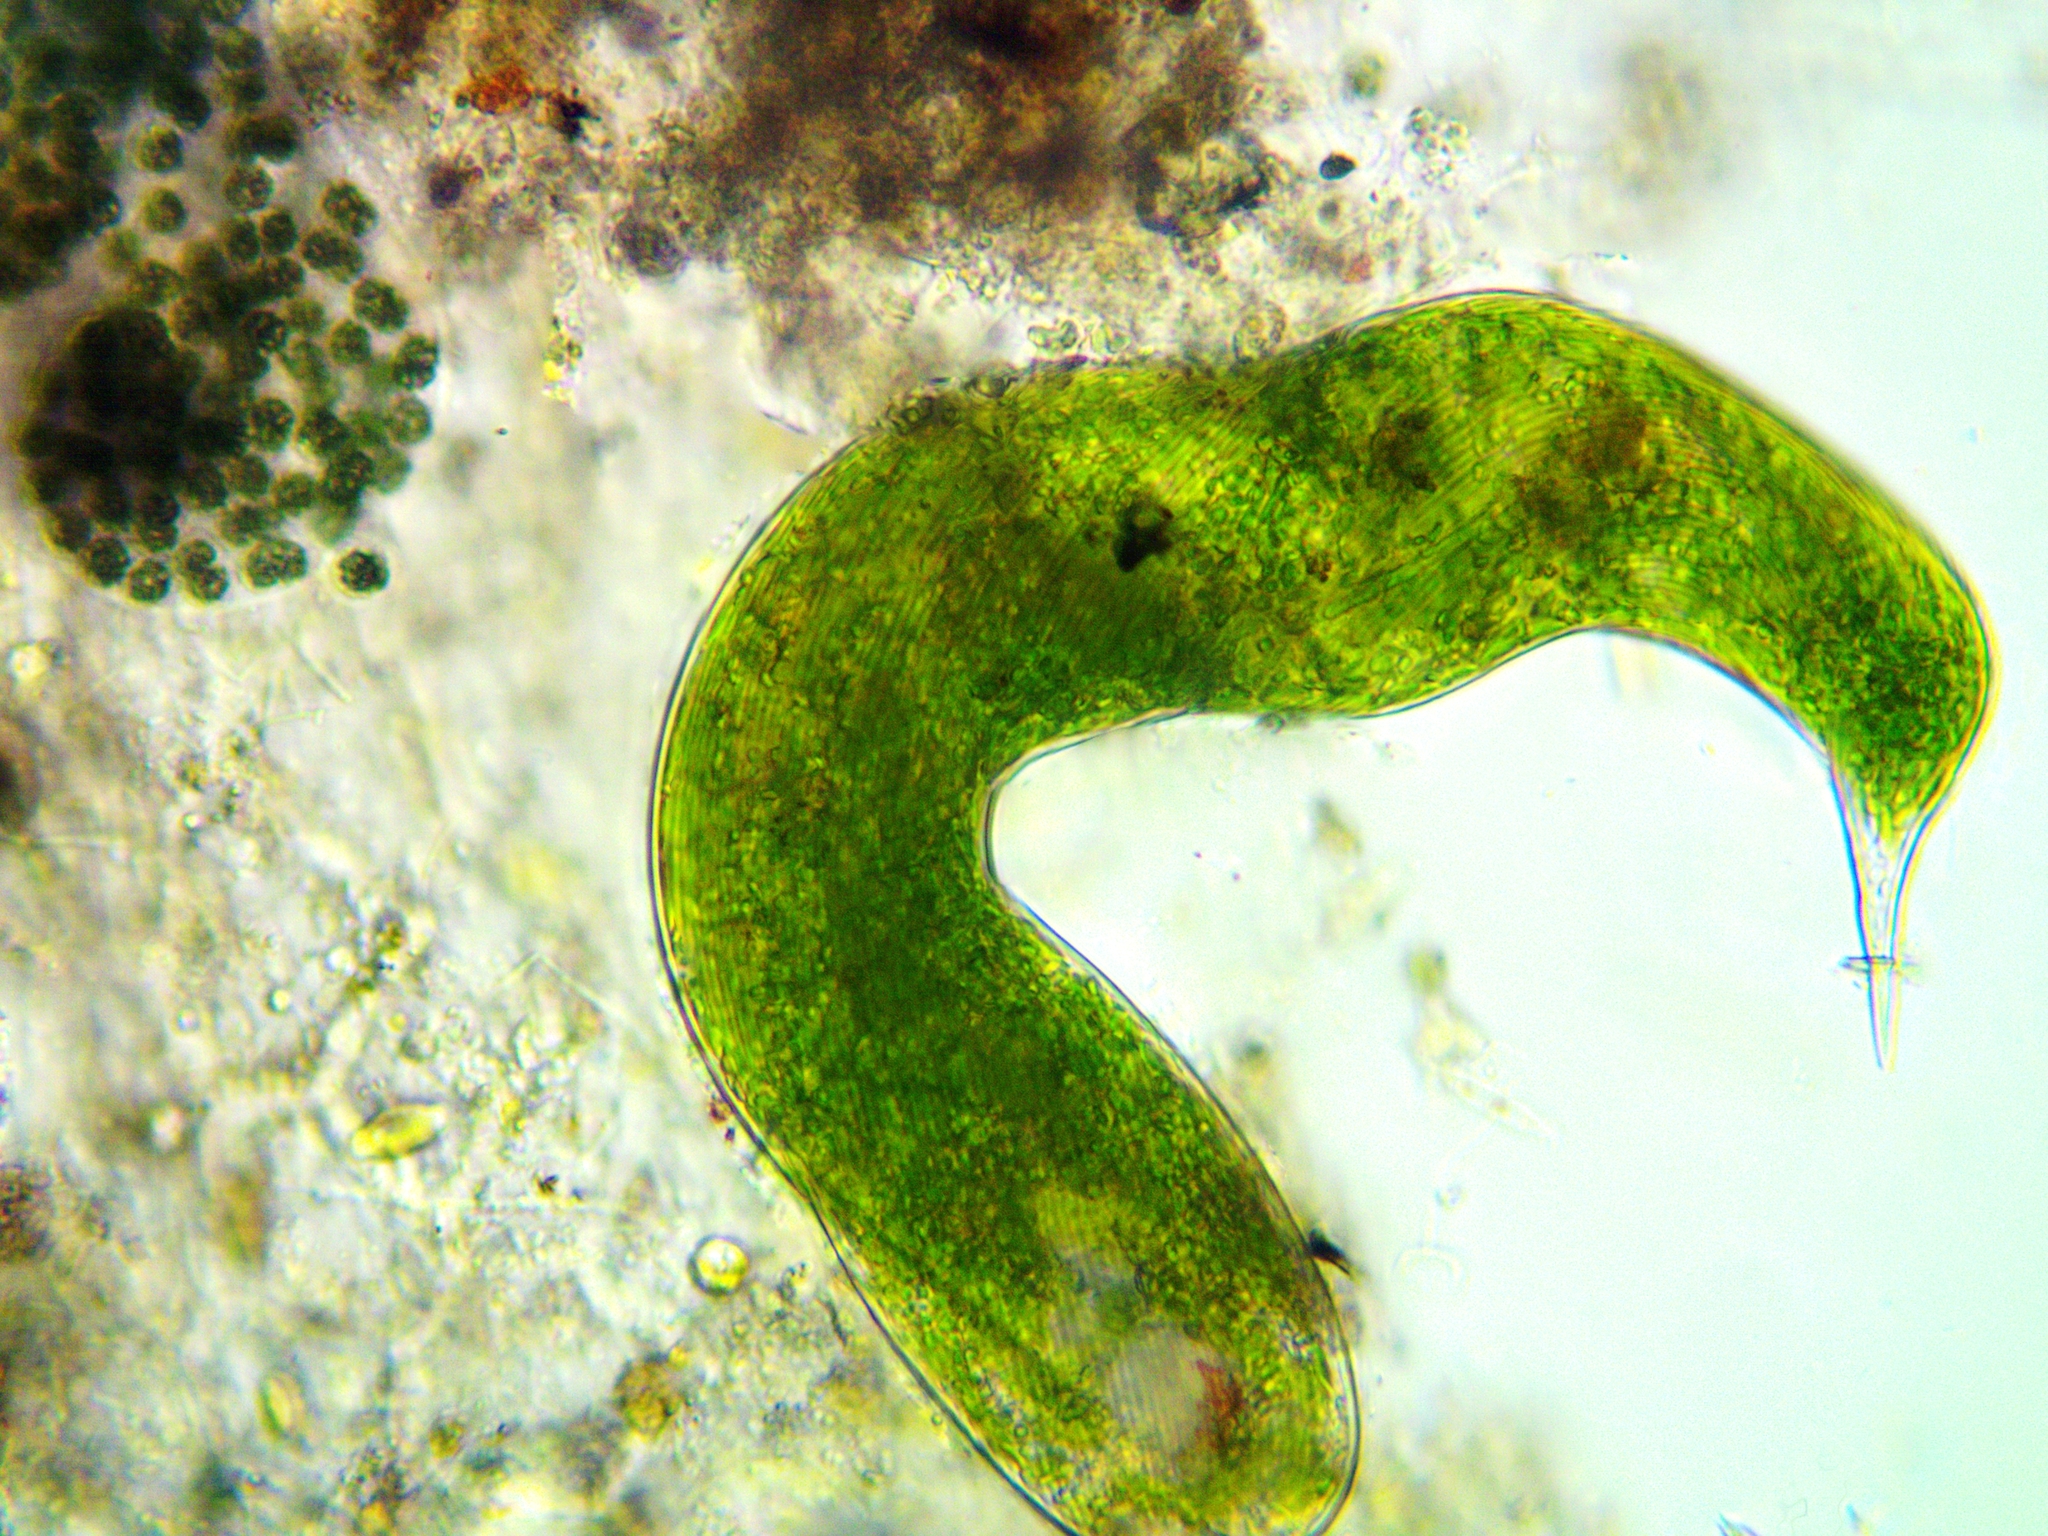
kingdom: Protozoa
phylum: Euglenozoa
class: Euglenoidea
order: Euglenida
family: Phacidae
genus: Lepocinclis
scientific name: Lepocinclis oxyuris
